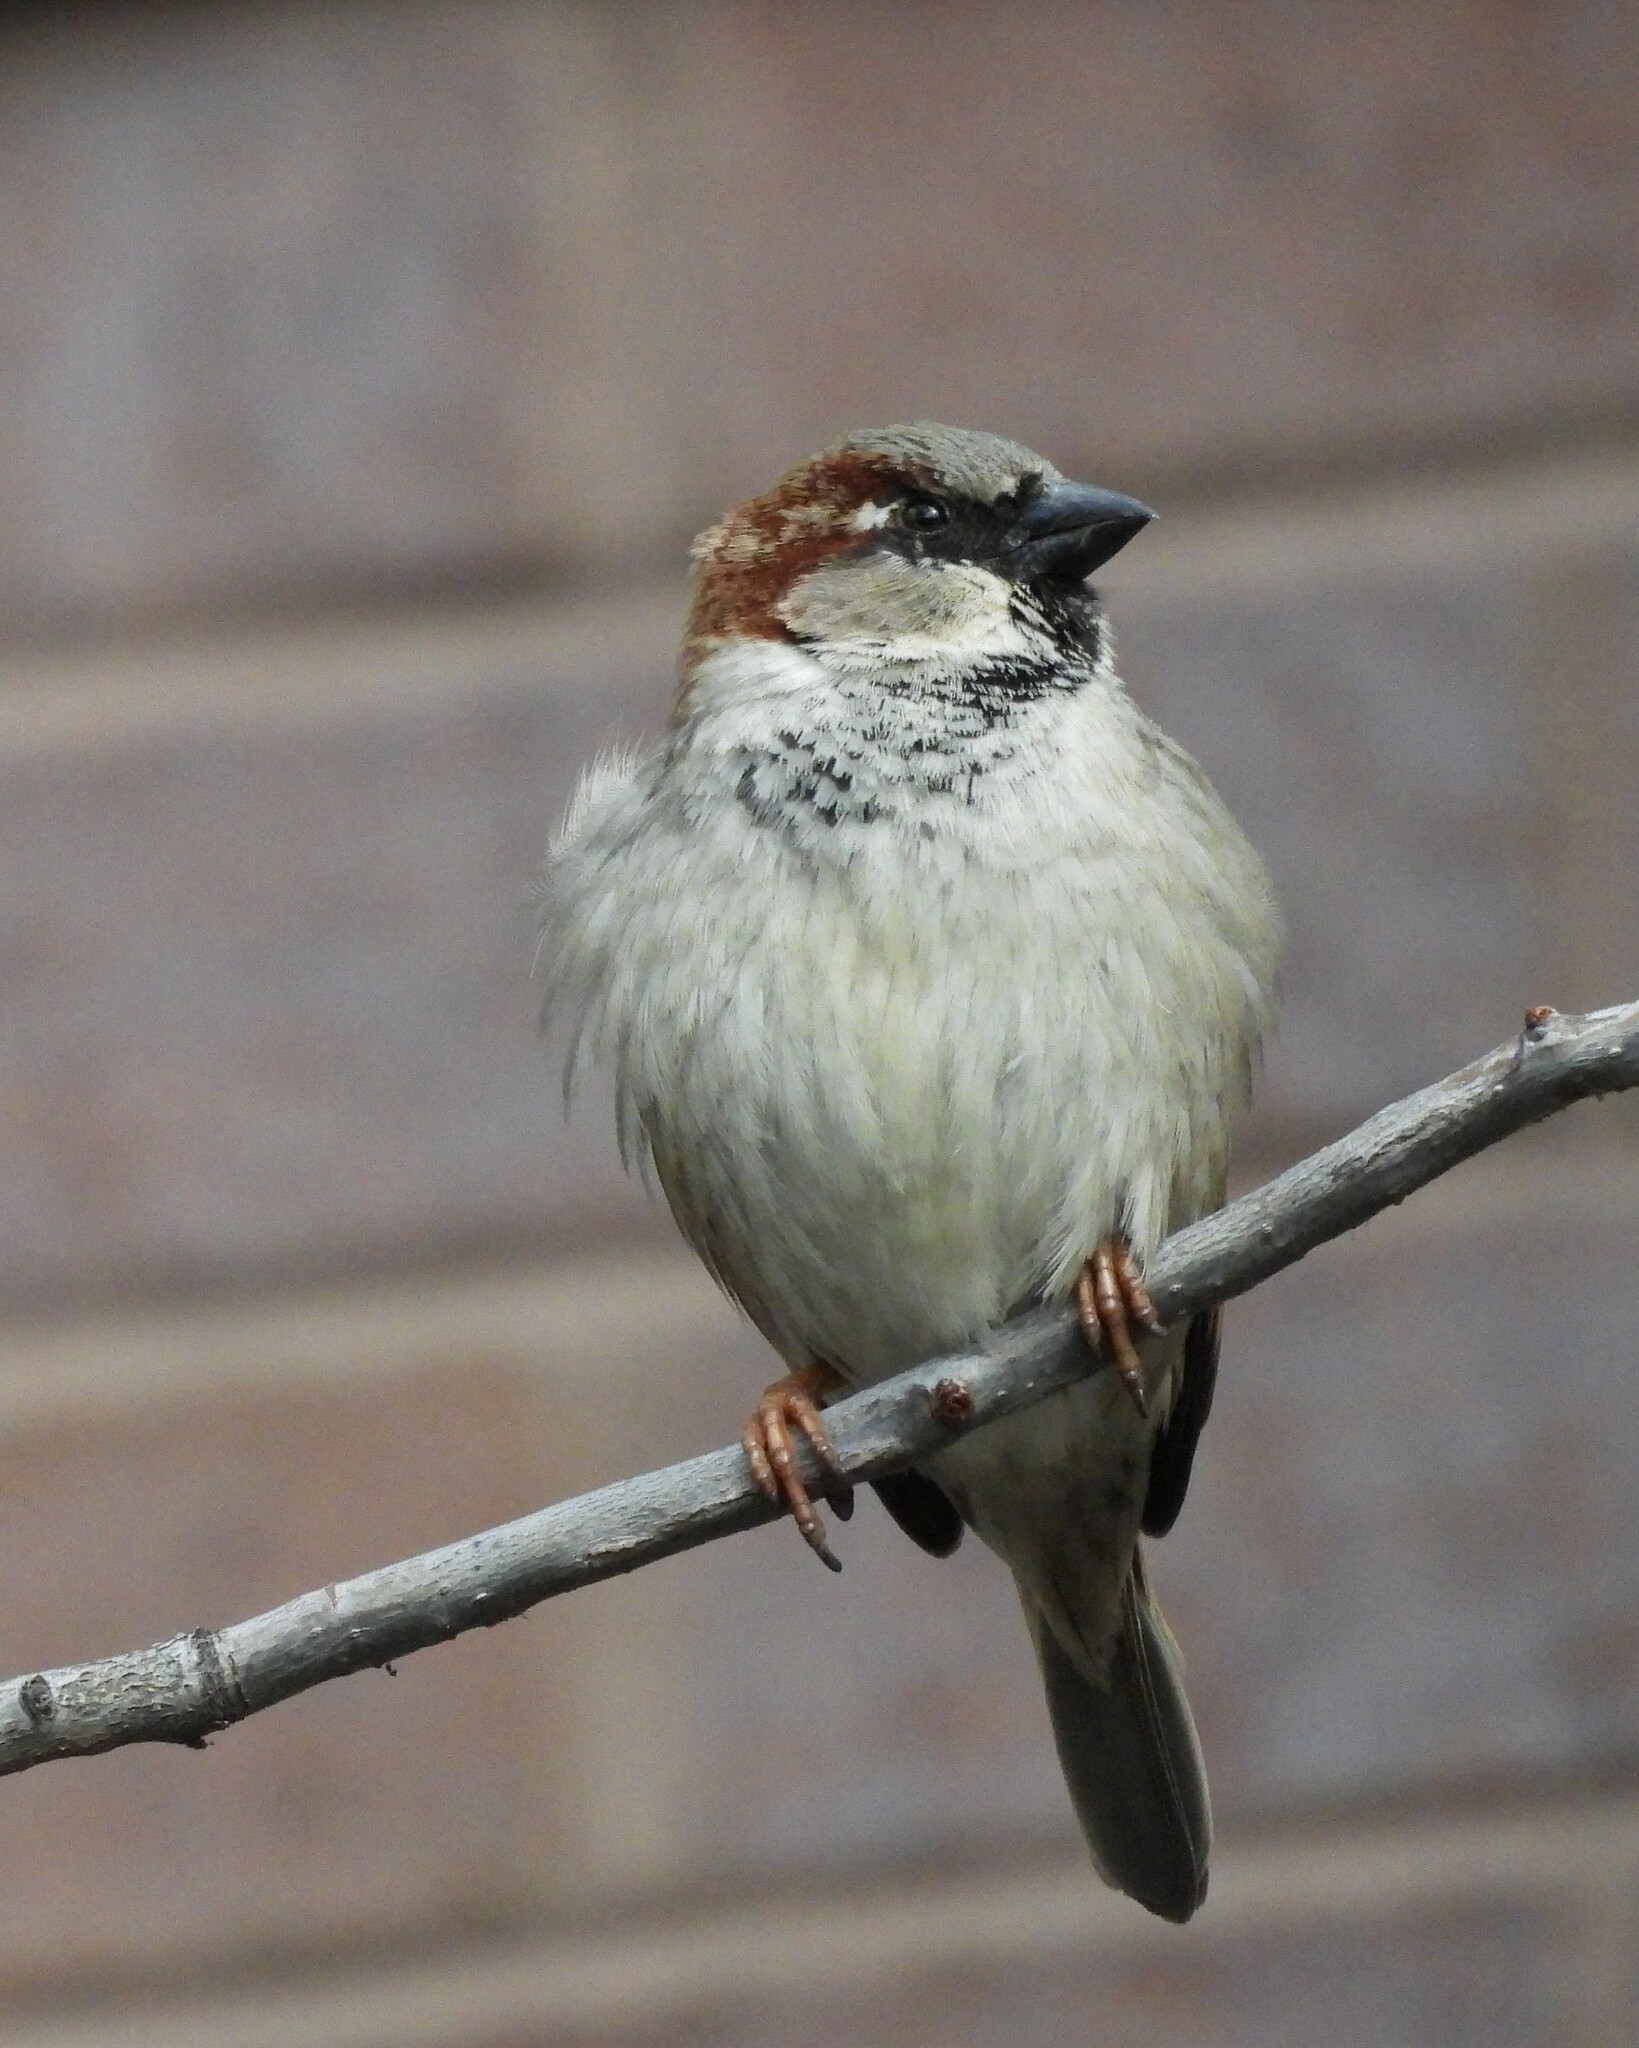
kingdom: Animalia
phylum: Chordata
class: Aves
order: Passeriformes
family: Passeridae
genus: Passer
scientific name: Passer domesticus
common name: House sparrow
